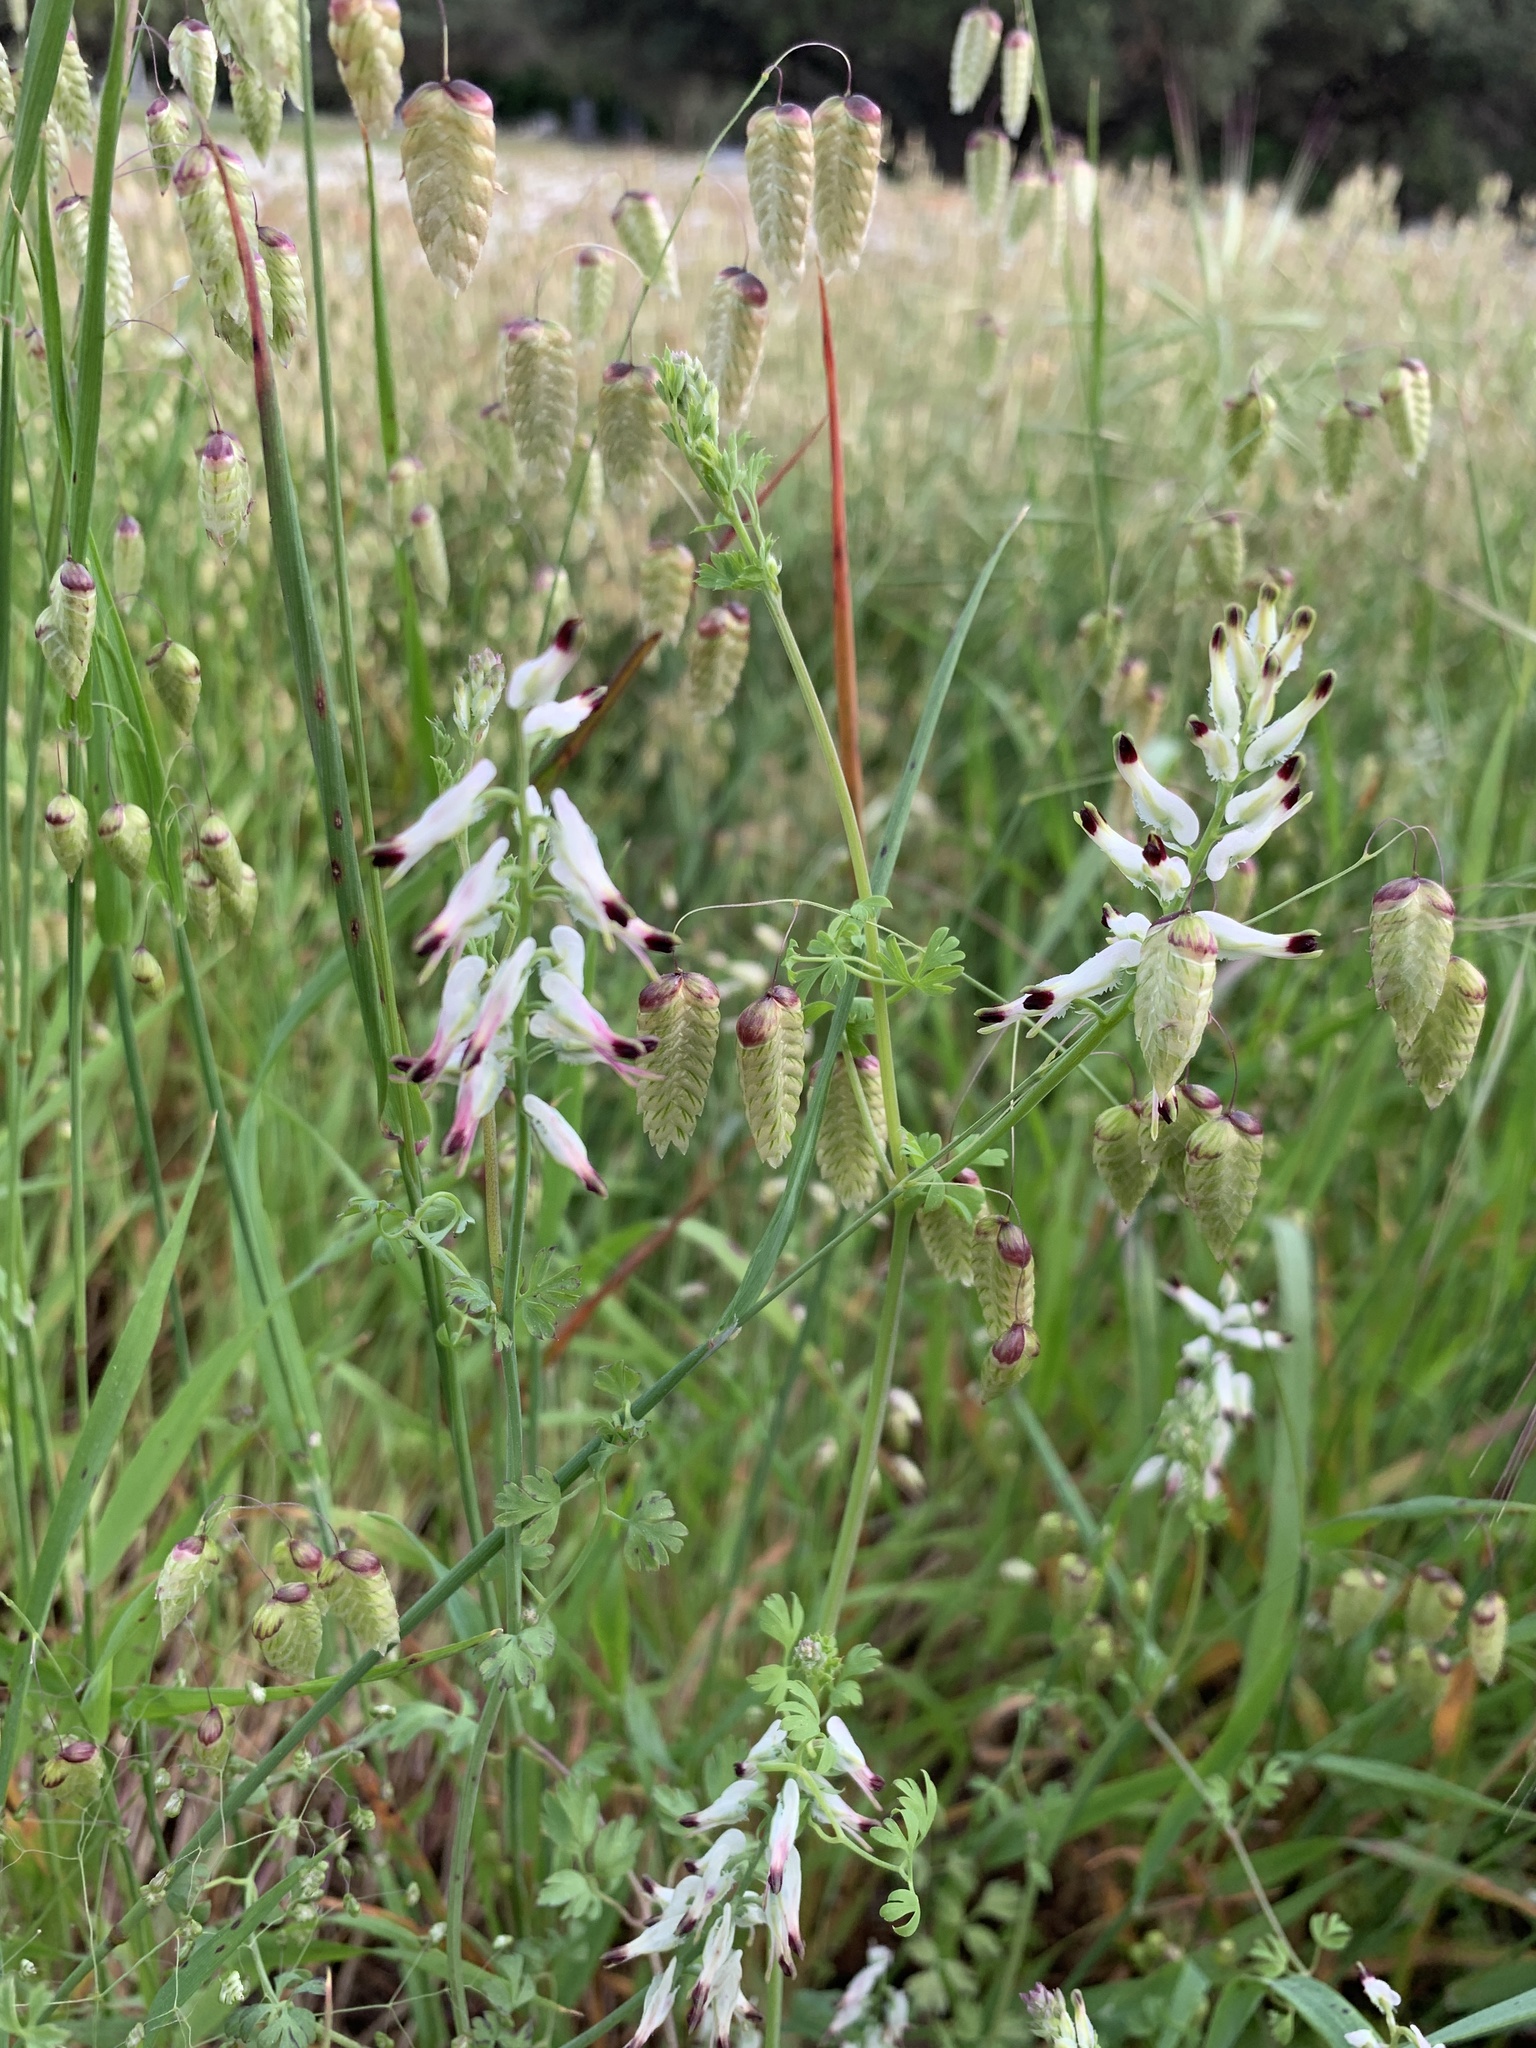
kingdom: Plantae
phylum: Tracheophyta
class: Magnoliopsida
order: Ranunculales
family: Papaveraceae
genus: Fumaria
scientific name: Fumaria capreolata
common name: White ramping-fumitory
